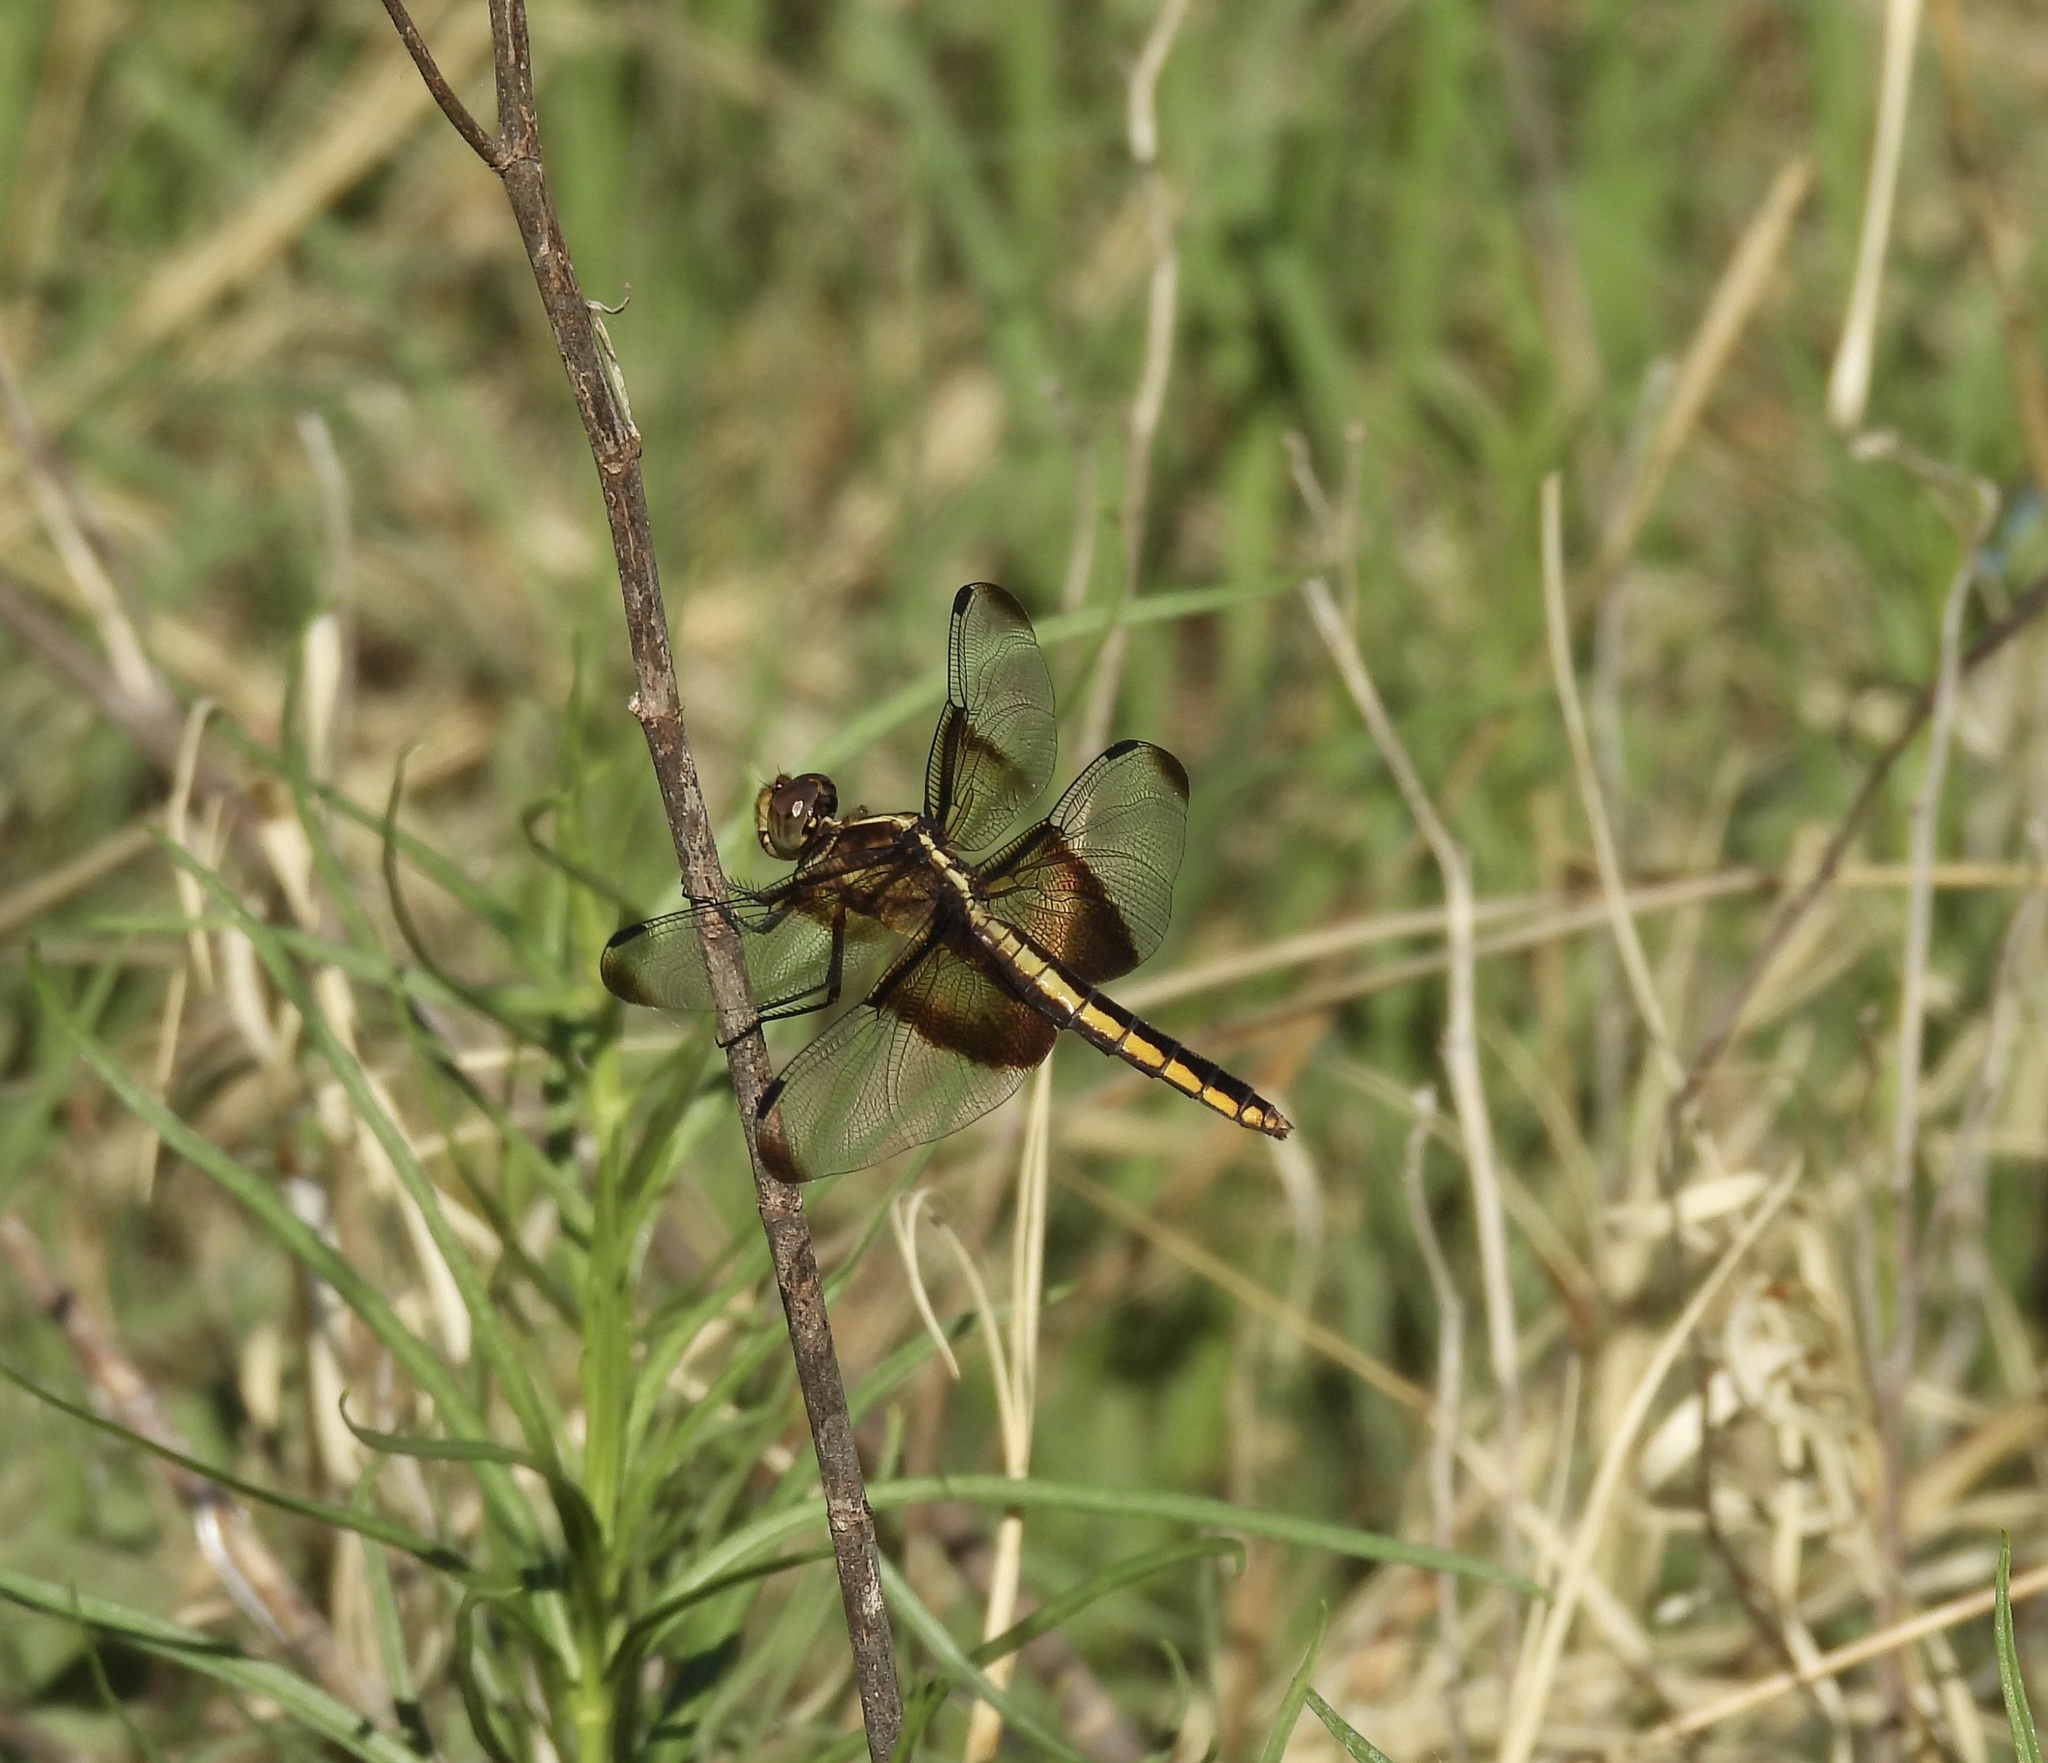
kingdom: Animalia
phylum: Arthropoda
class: Insecta
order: Odonata
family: Libellulidae
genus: Libellula
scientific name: Libellula luctuosa
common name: Widow skimmer
